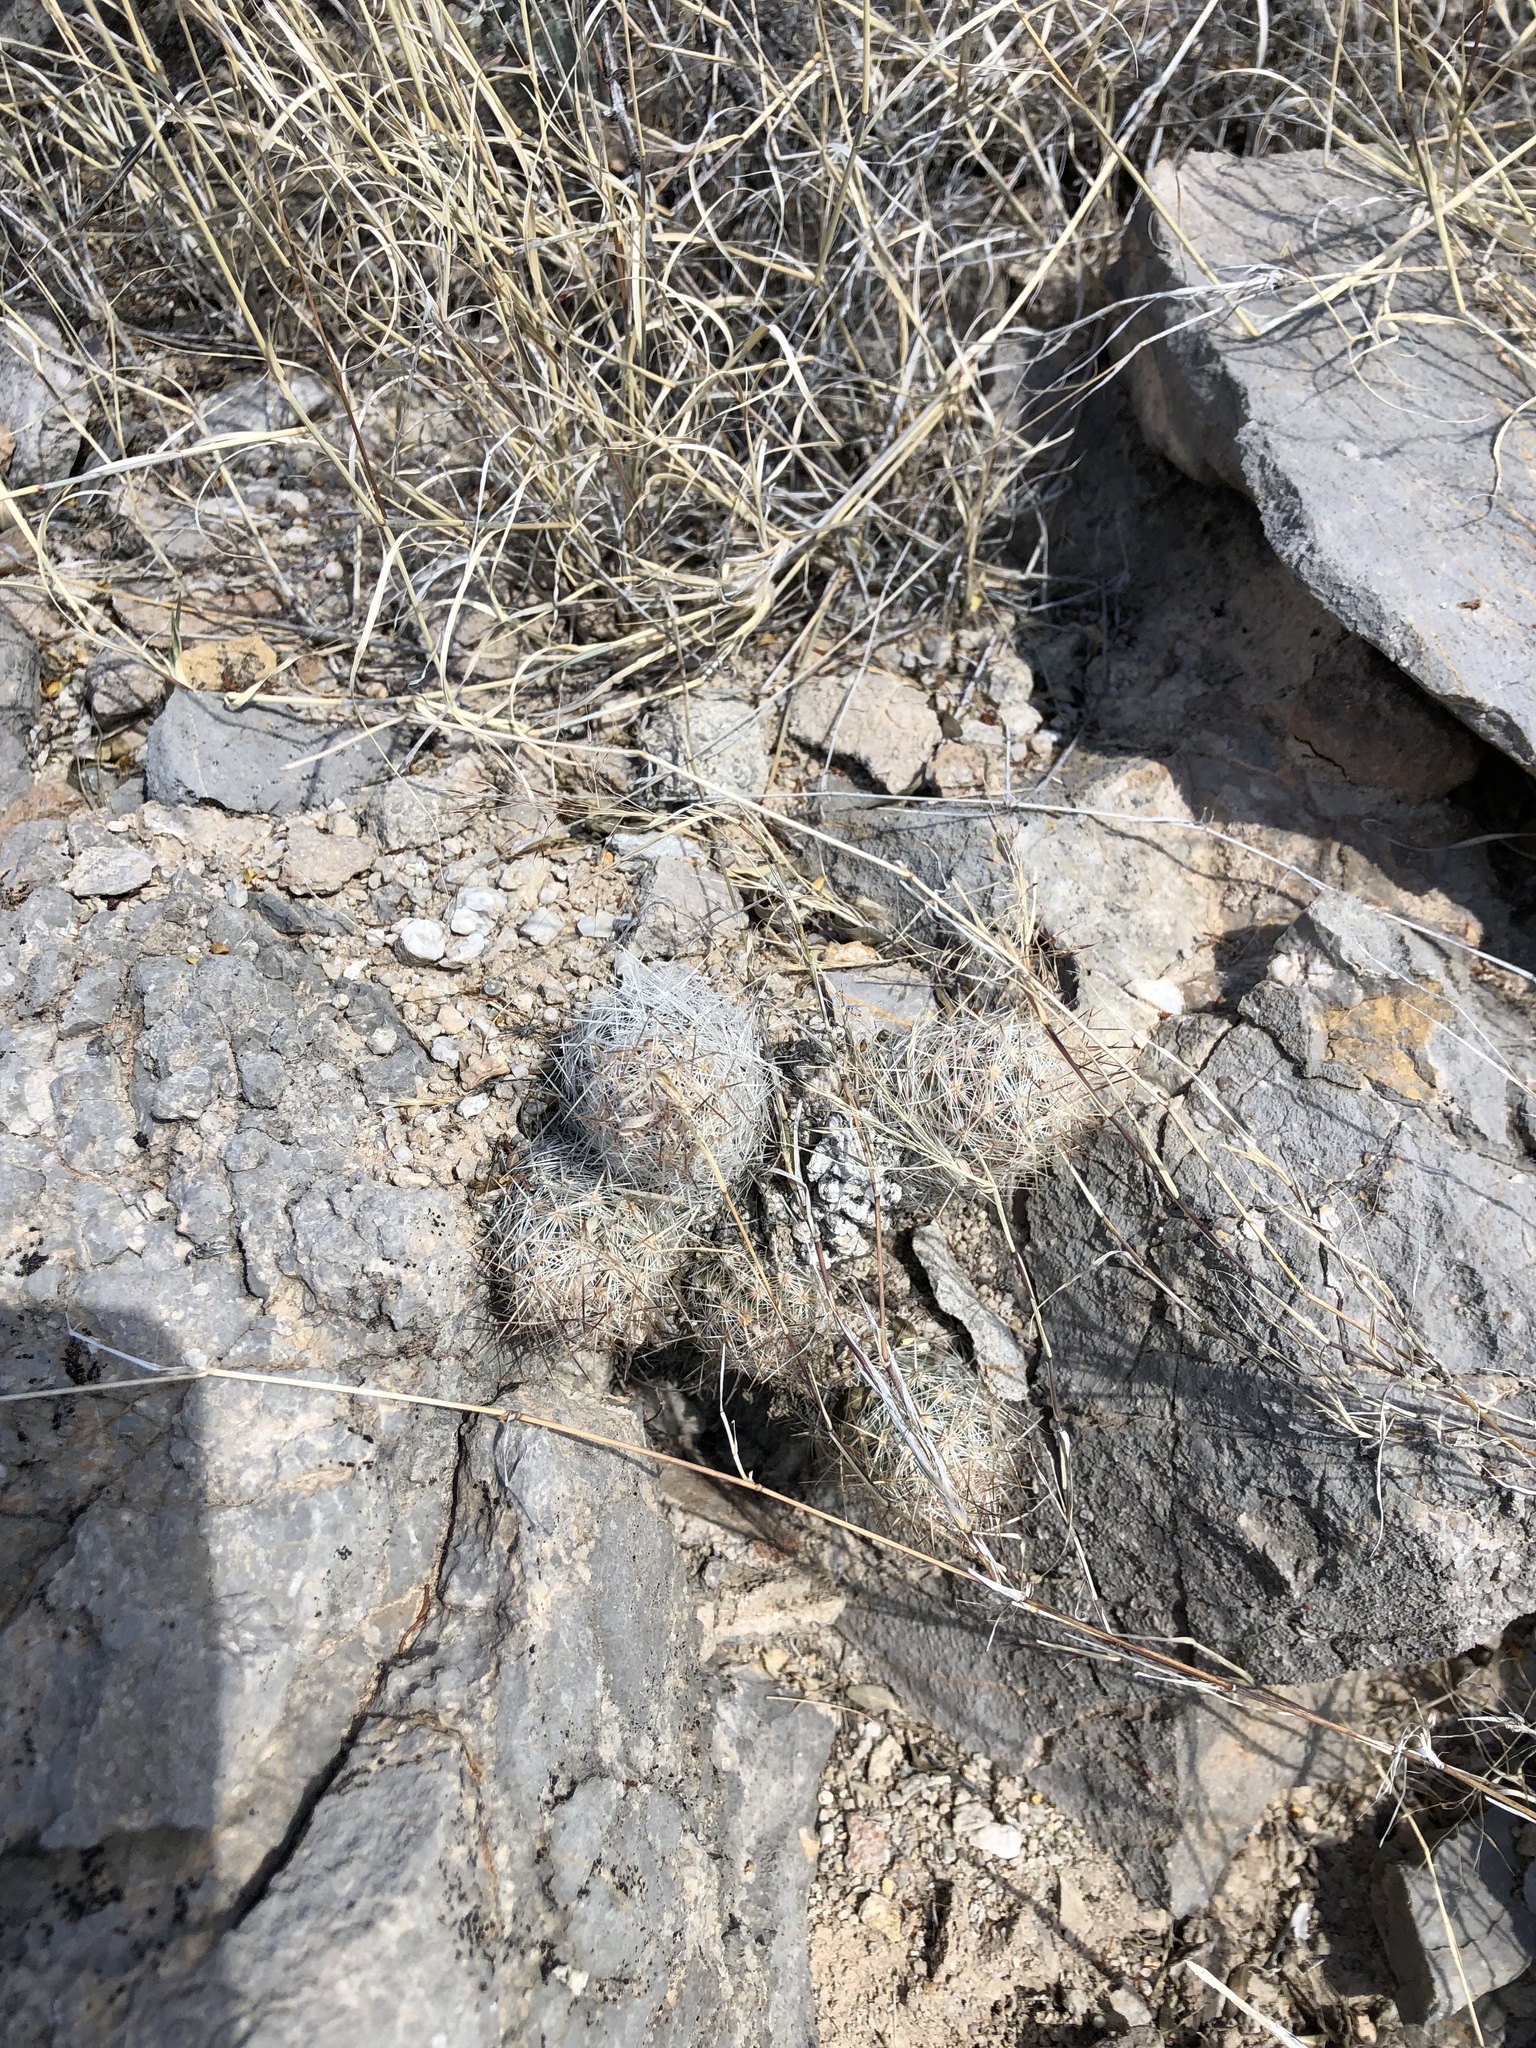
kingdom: Plantae
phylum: Tracheophyta
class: Magnoliopsida
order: Caryophyllales
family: Cactaceae
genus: Pelecyphora
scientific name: Pelecyphora tuberculosa
